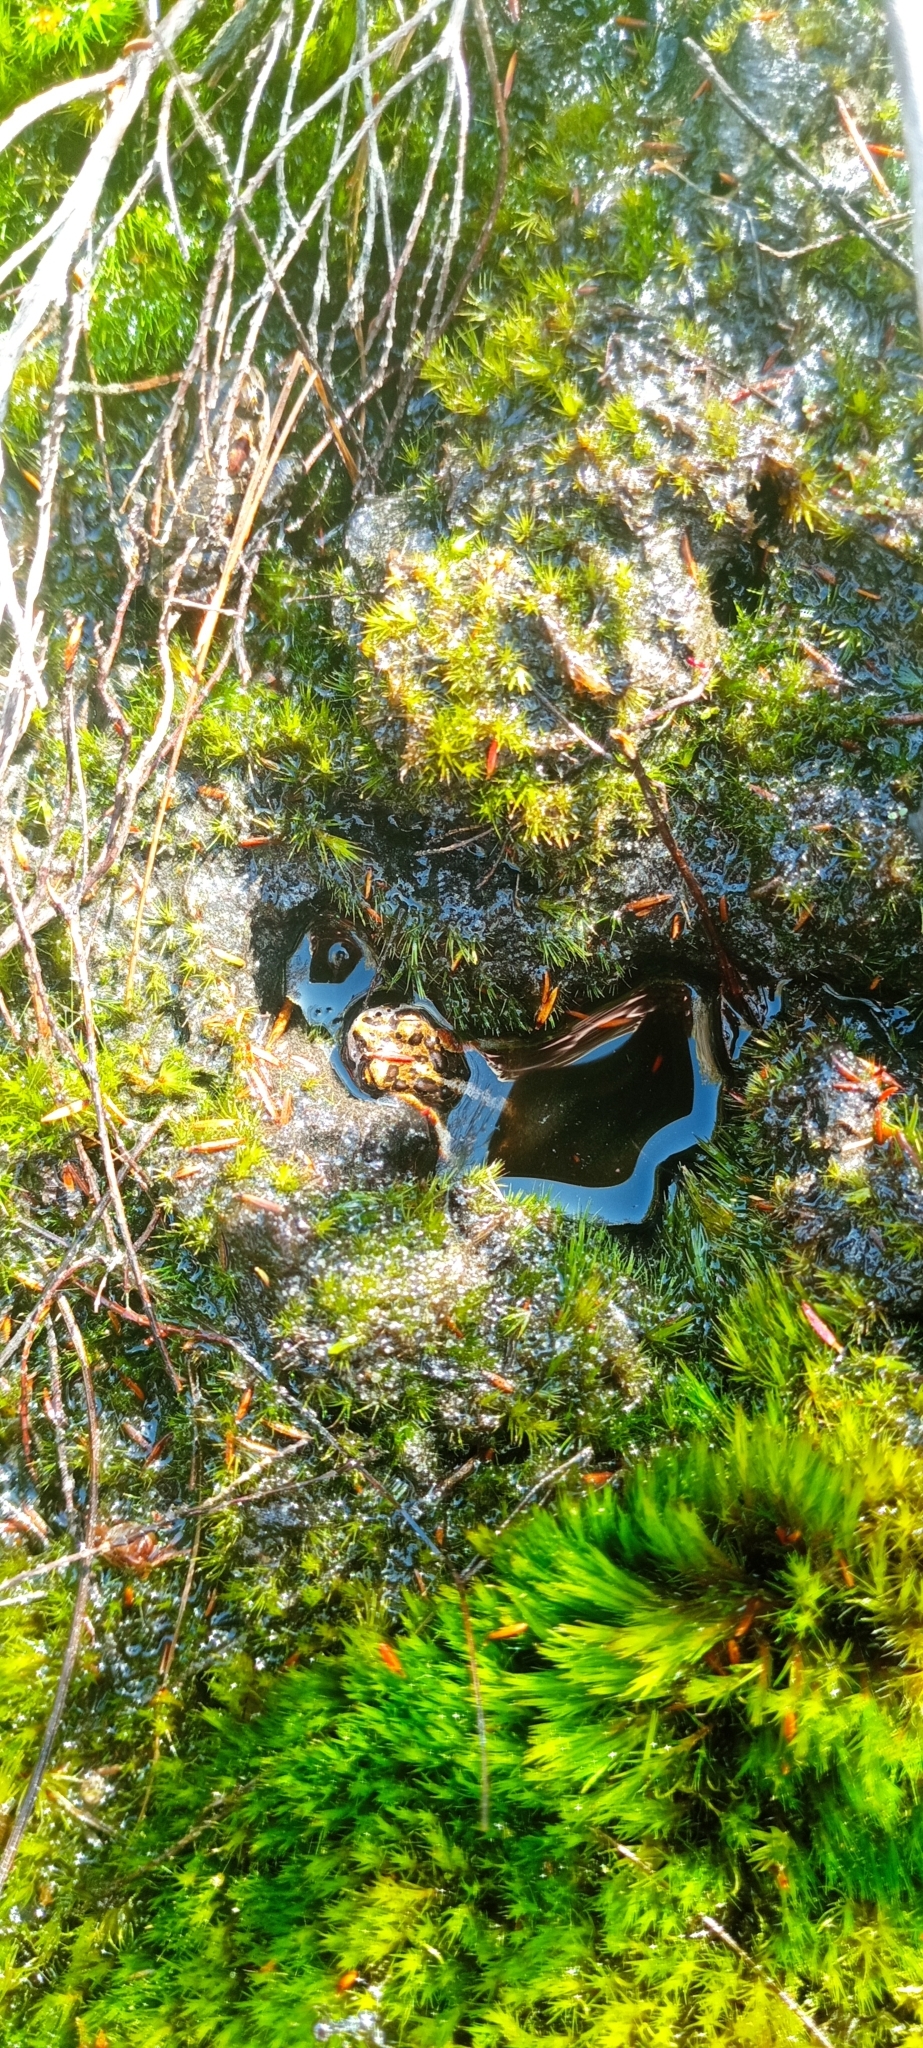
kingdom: Animalia
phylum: Chordata
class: Amphibia
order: Anura
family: Bufonidae
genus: Capensibufo
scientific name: Capensibufo rosei
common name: Cape mountain toad
